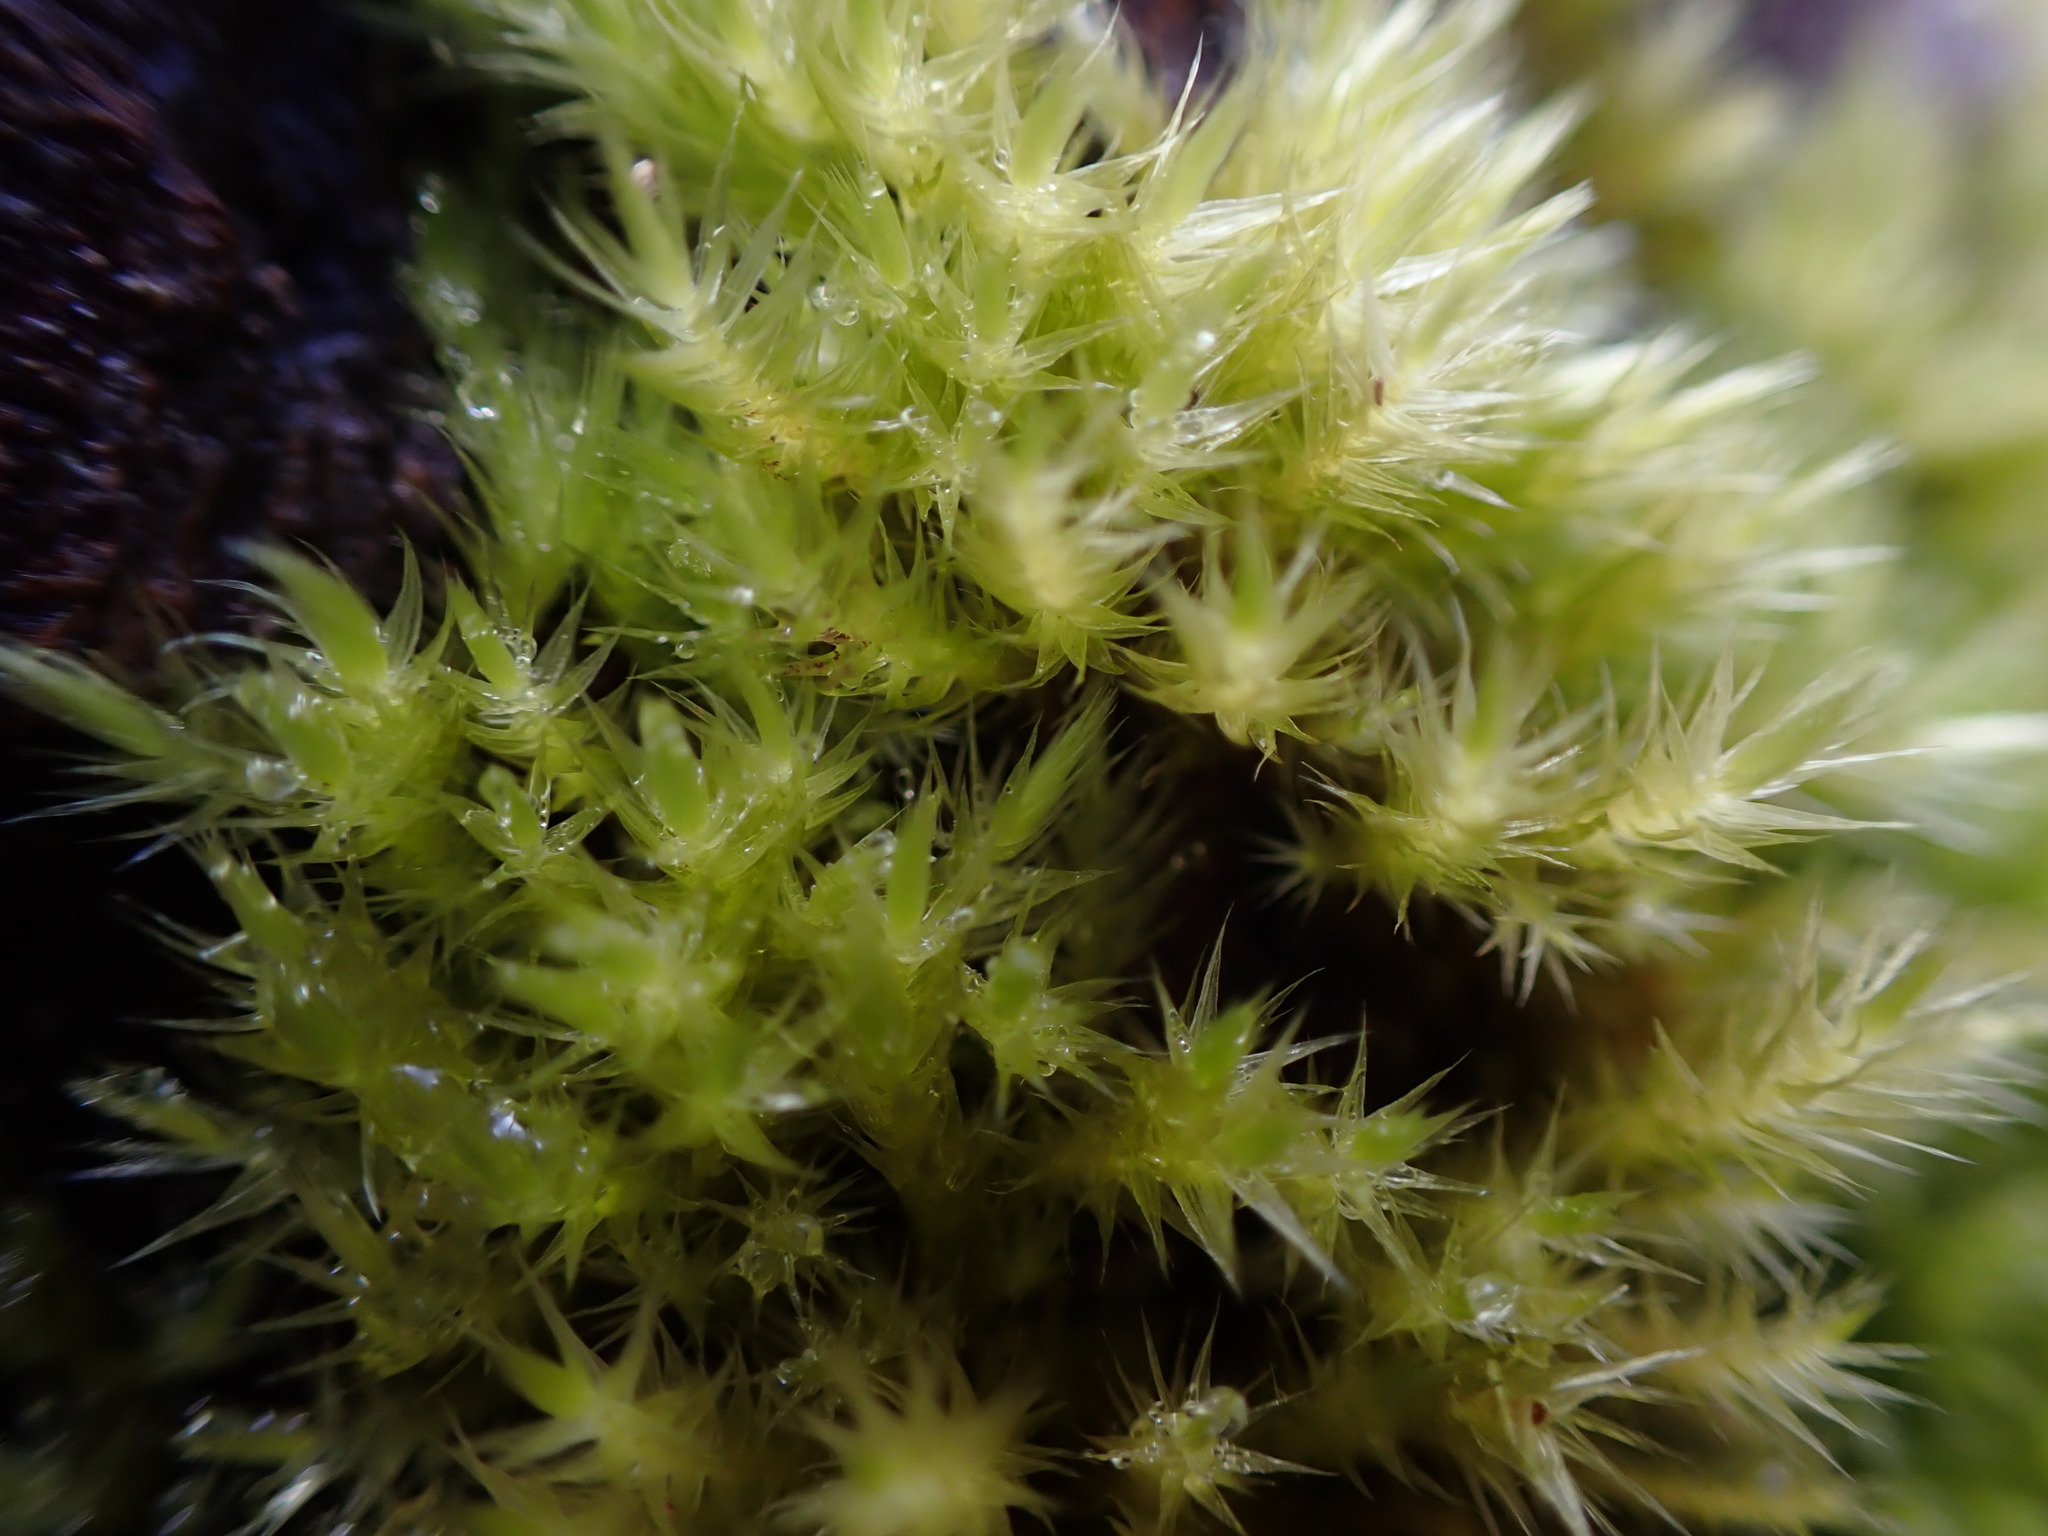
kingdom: Plantae
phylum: Bryophyta
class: Bryopsida
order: Hypnales
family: Brachytheciaceae
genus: Homalothecium
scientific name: Homalothecium fulgescens
